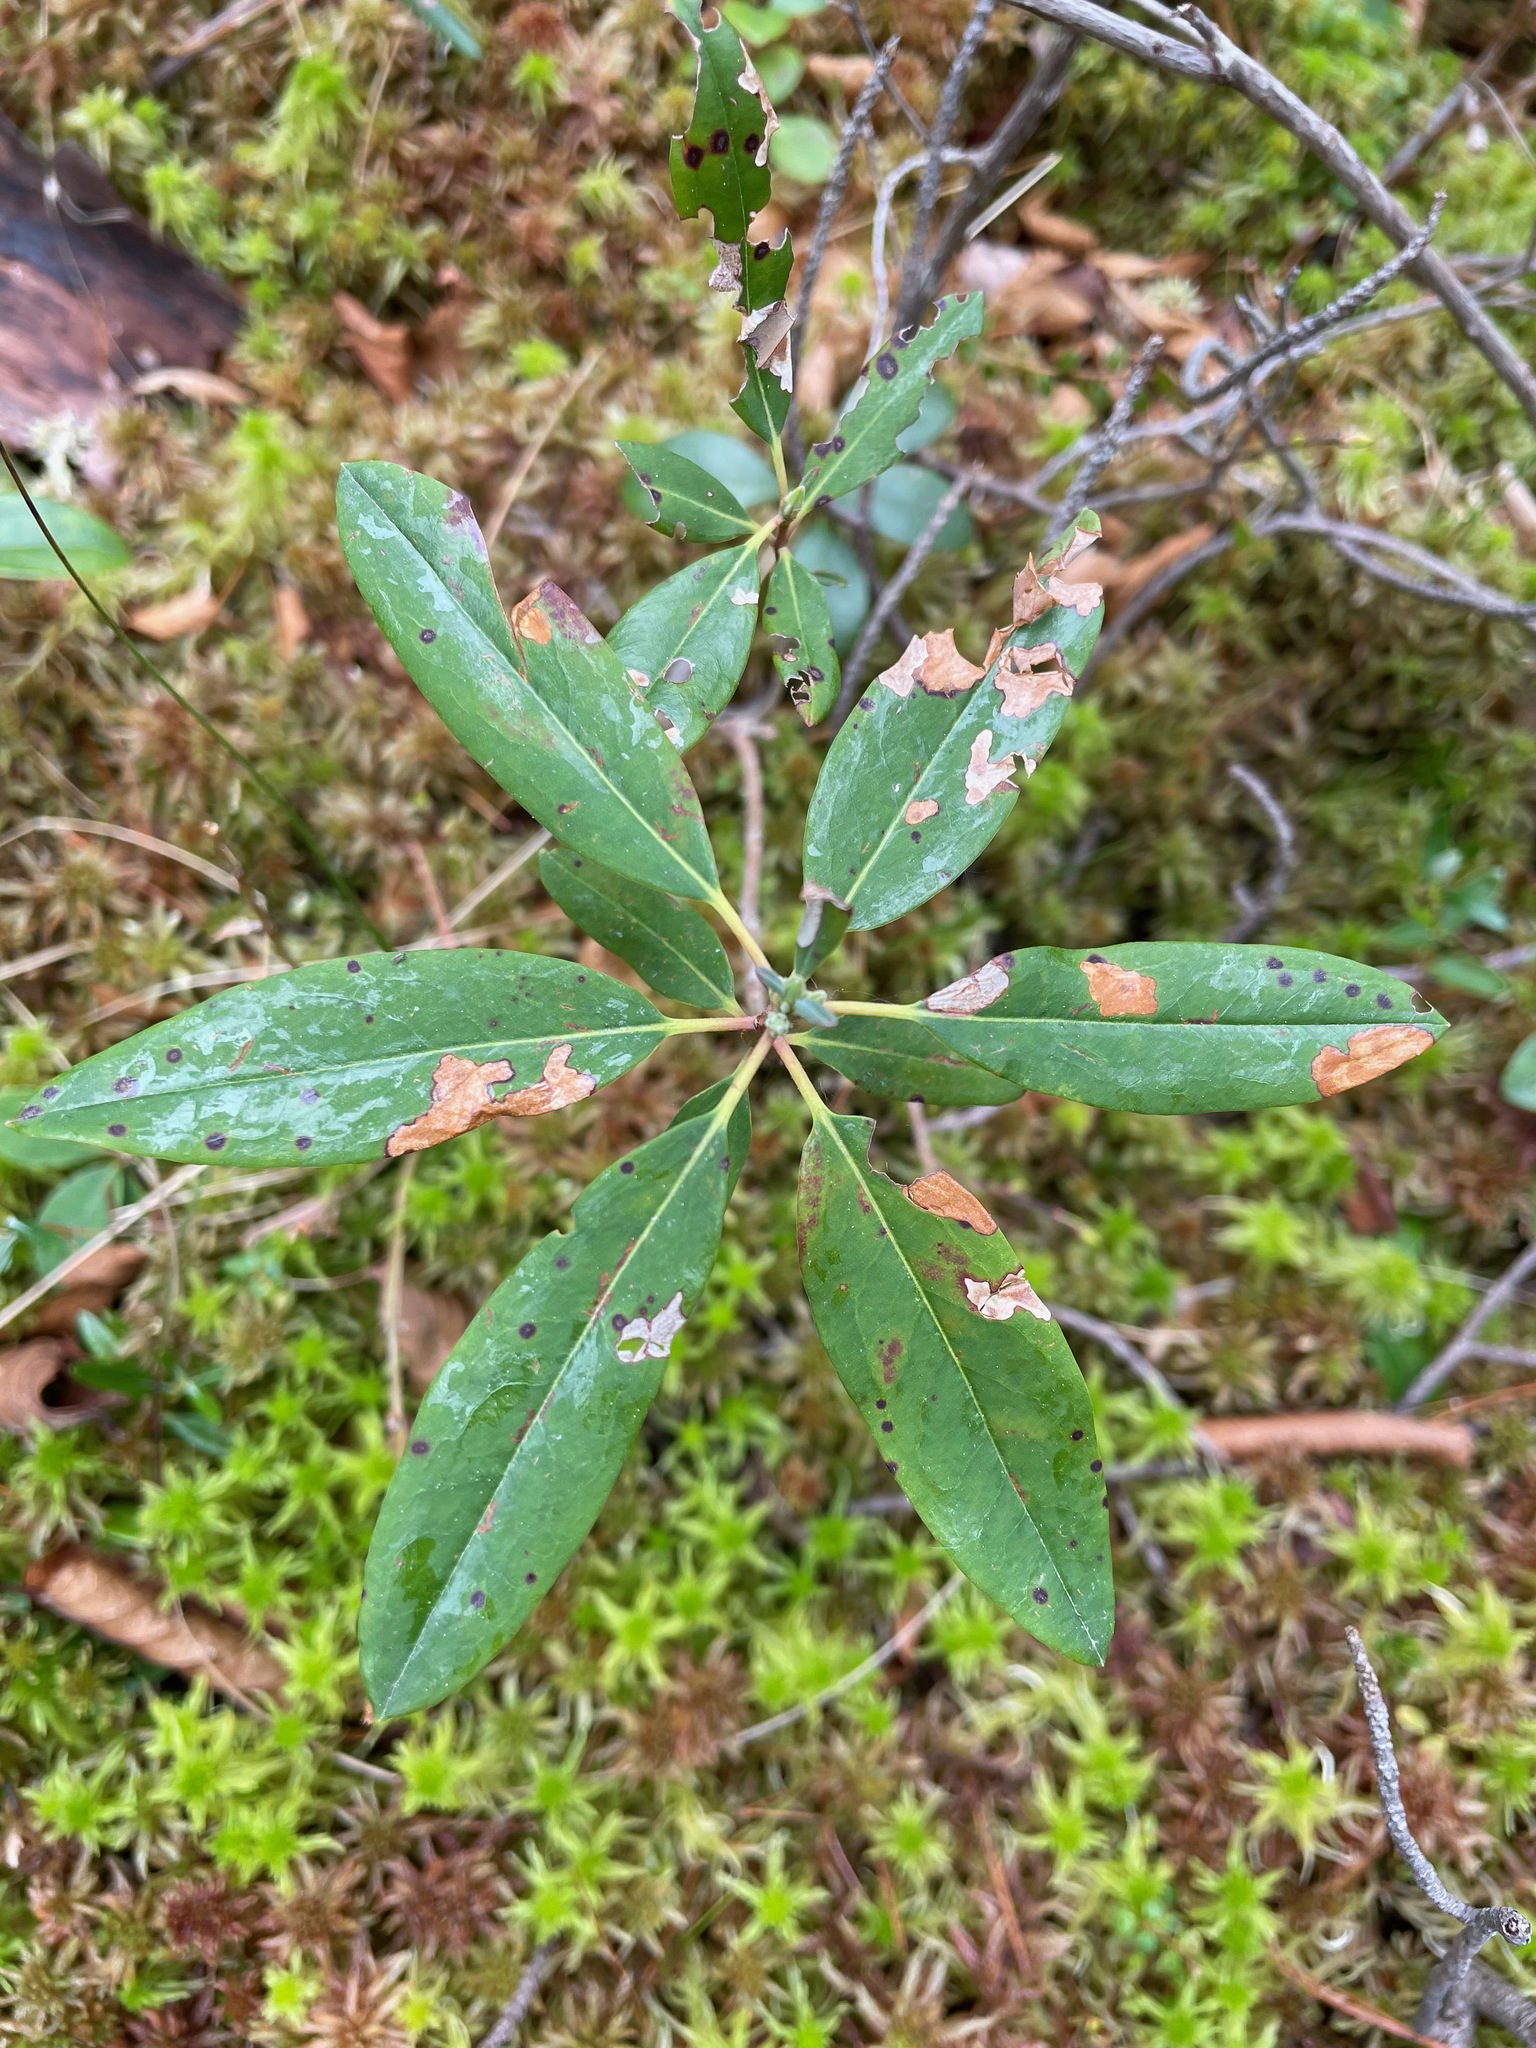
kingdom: Plantae
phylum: Tracheophyta
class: Magnoliopsida
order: Ericales
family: Ericaceae
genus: Kalmia
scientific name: Kalmia angustifolia
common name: Sheep-laurel
